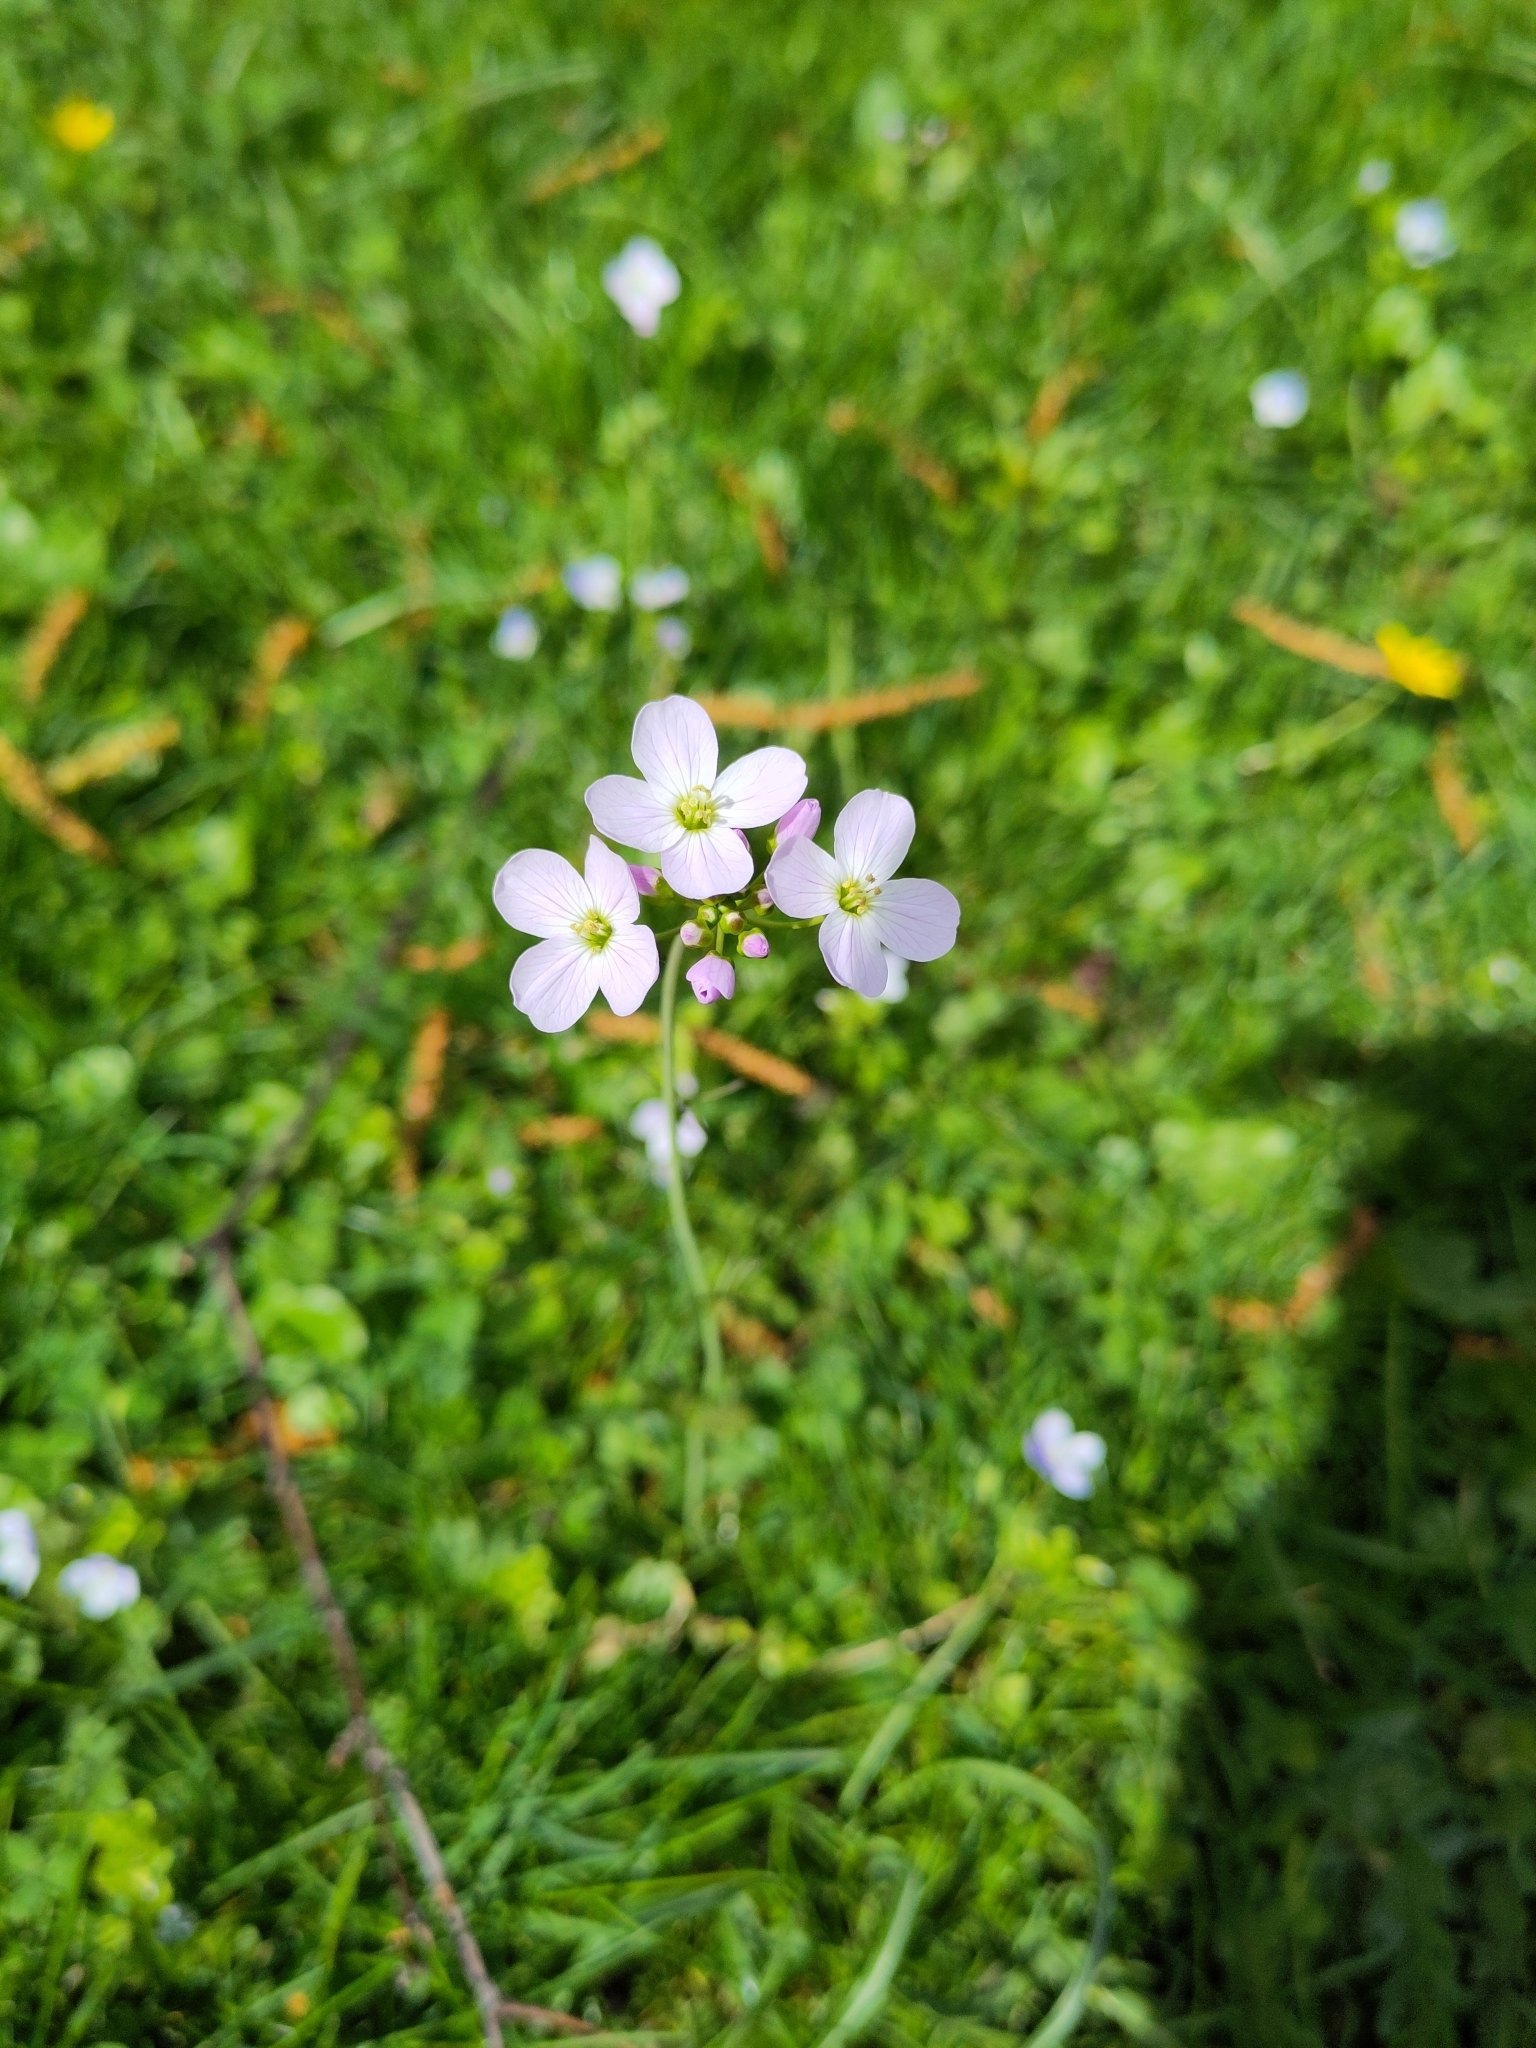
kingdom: Plantae
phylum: Tracheophyta
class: Magnoliopsida
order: Brassicales
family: Brassicaceae
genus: Cardamine
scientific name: Cardamine pratensis
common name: Cuckoo flower
